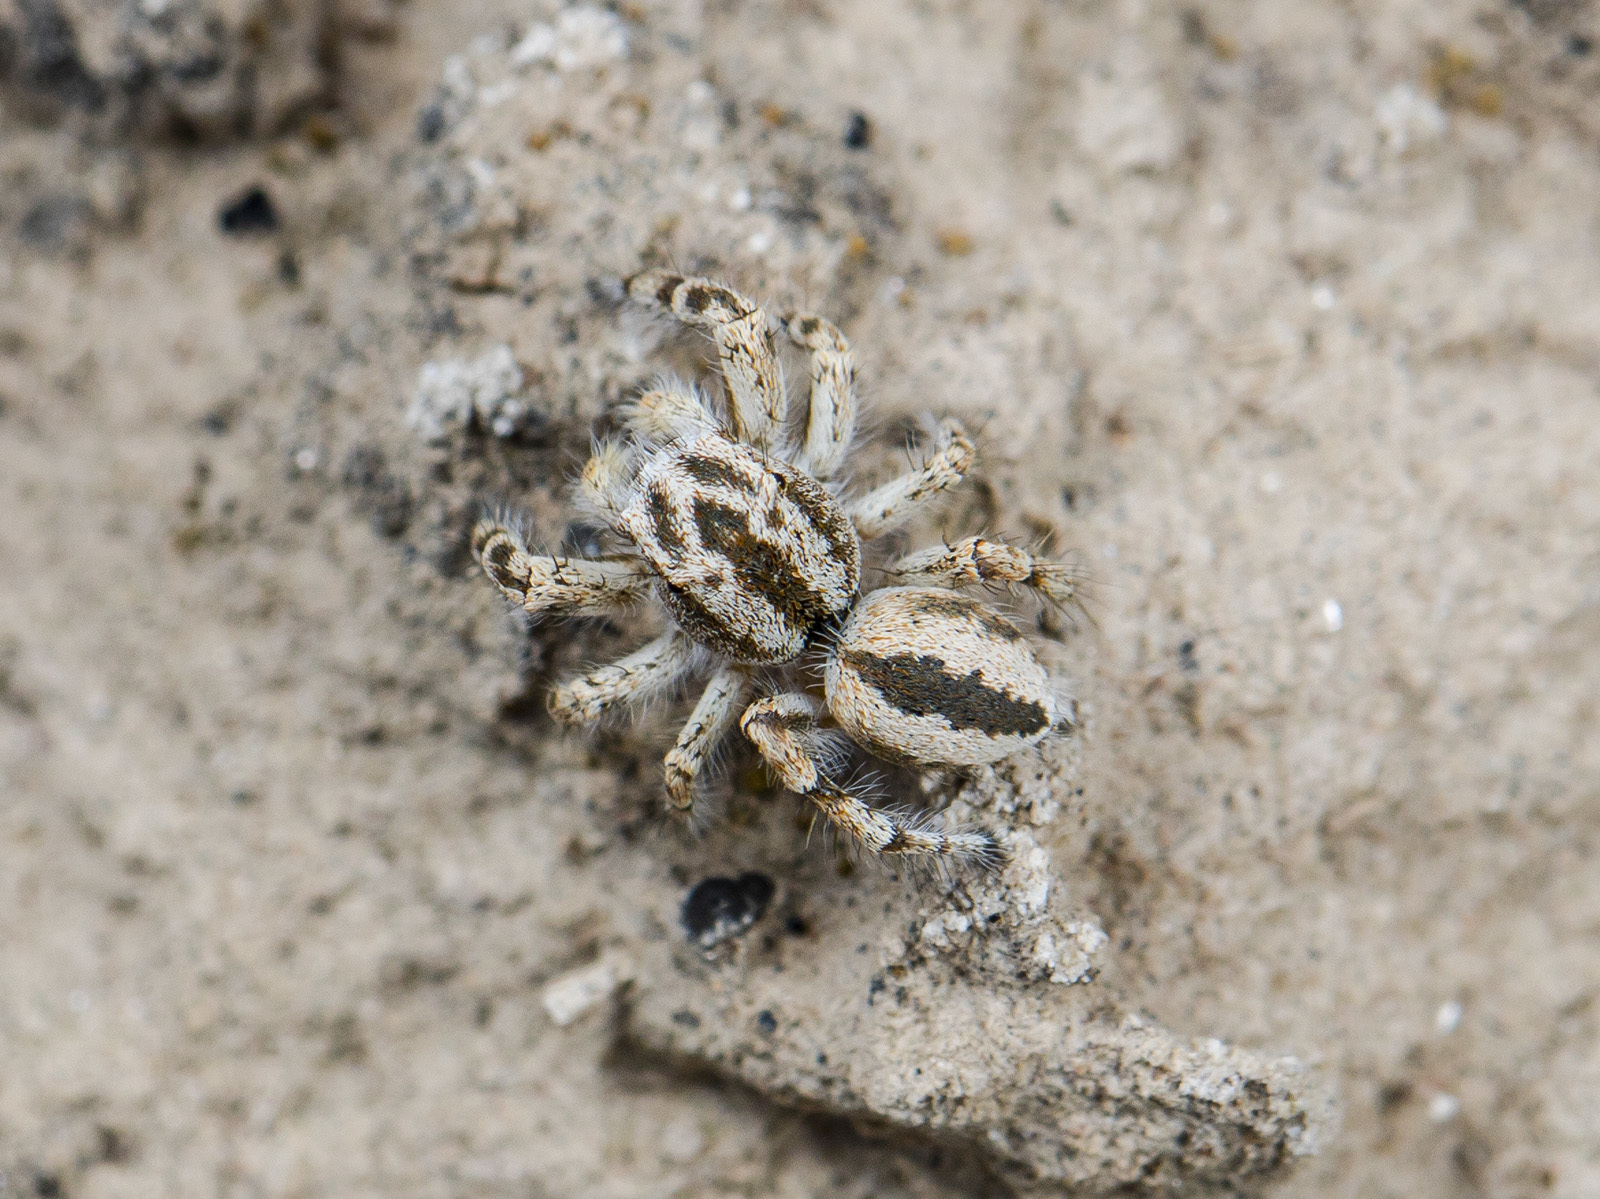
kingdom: Animalia
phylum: Arthropoda
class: Arachnida
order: Araneae
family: Salticidae
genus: Pseudomogrus
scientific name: Pseudomogrus guseinovi
